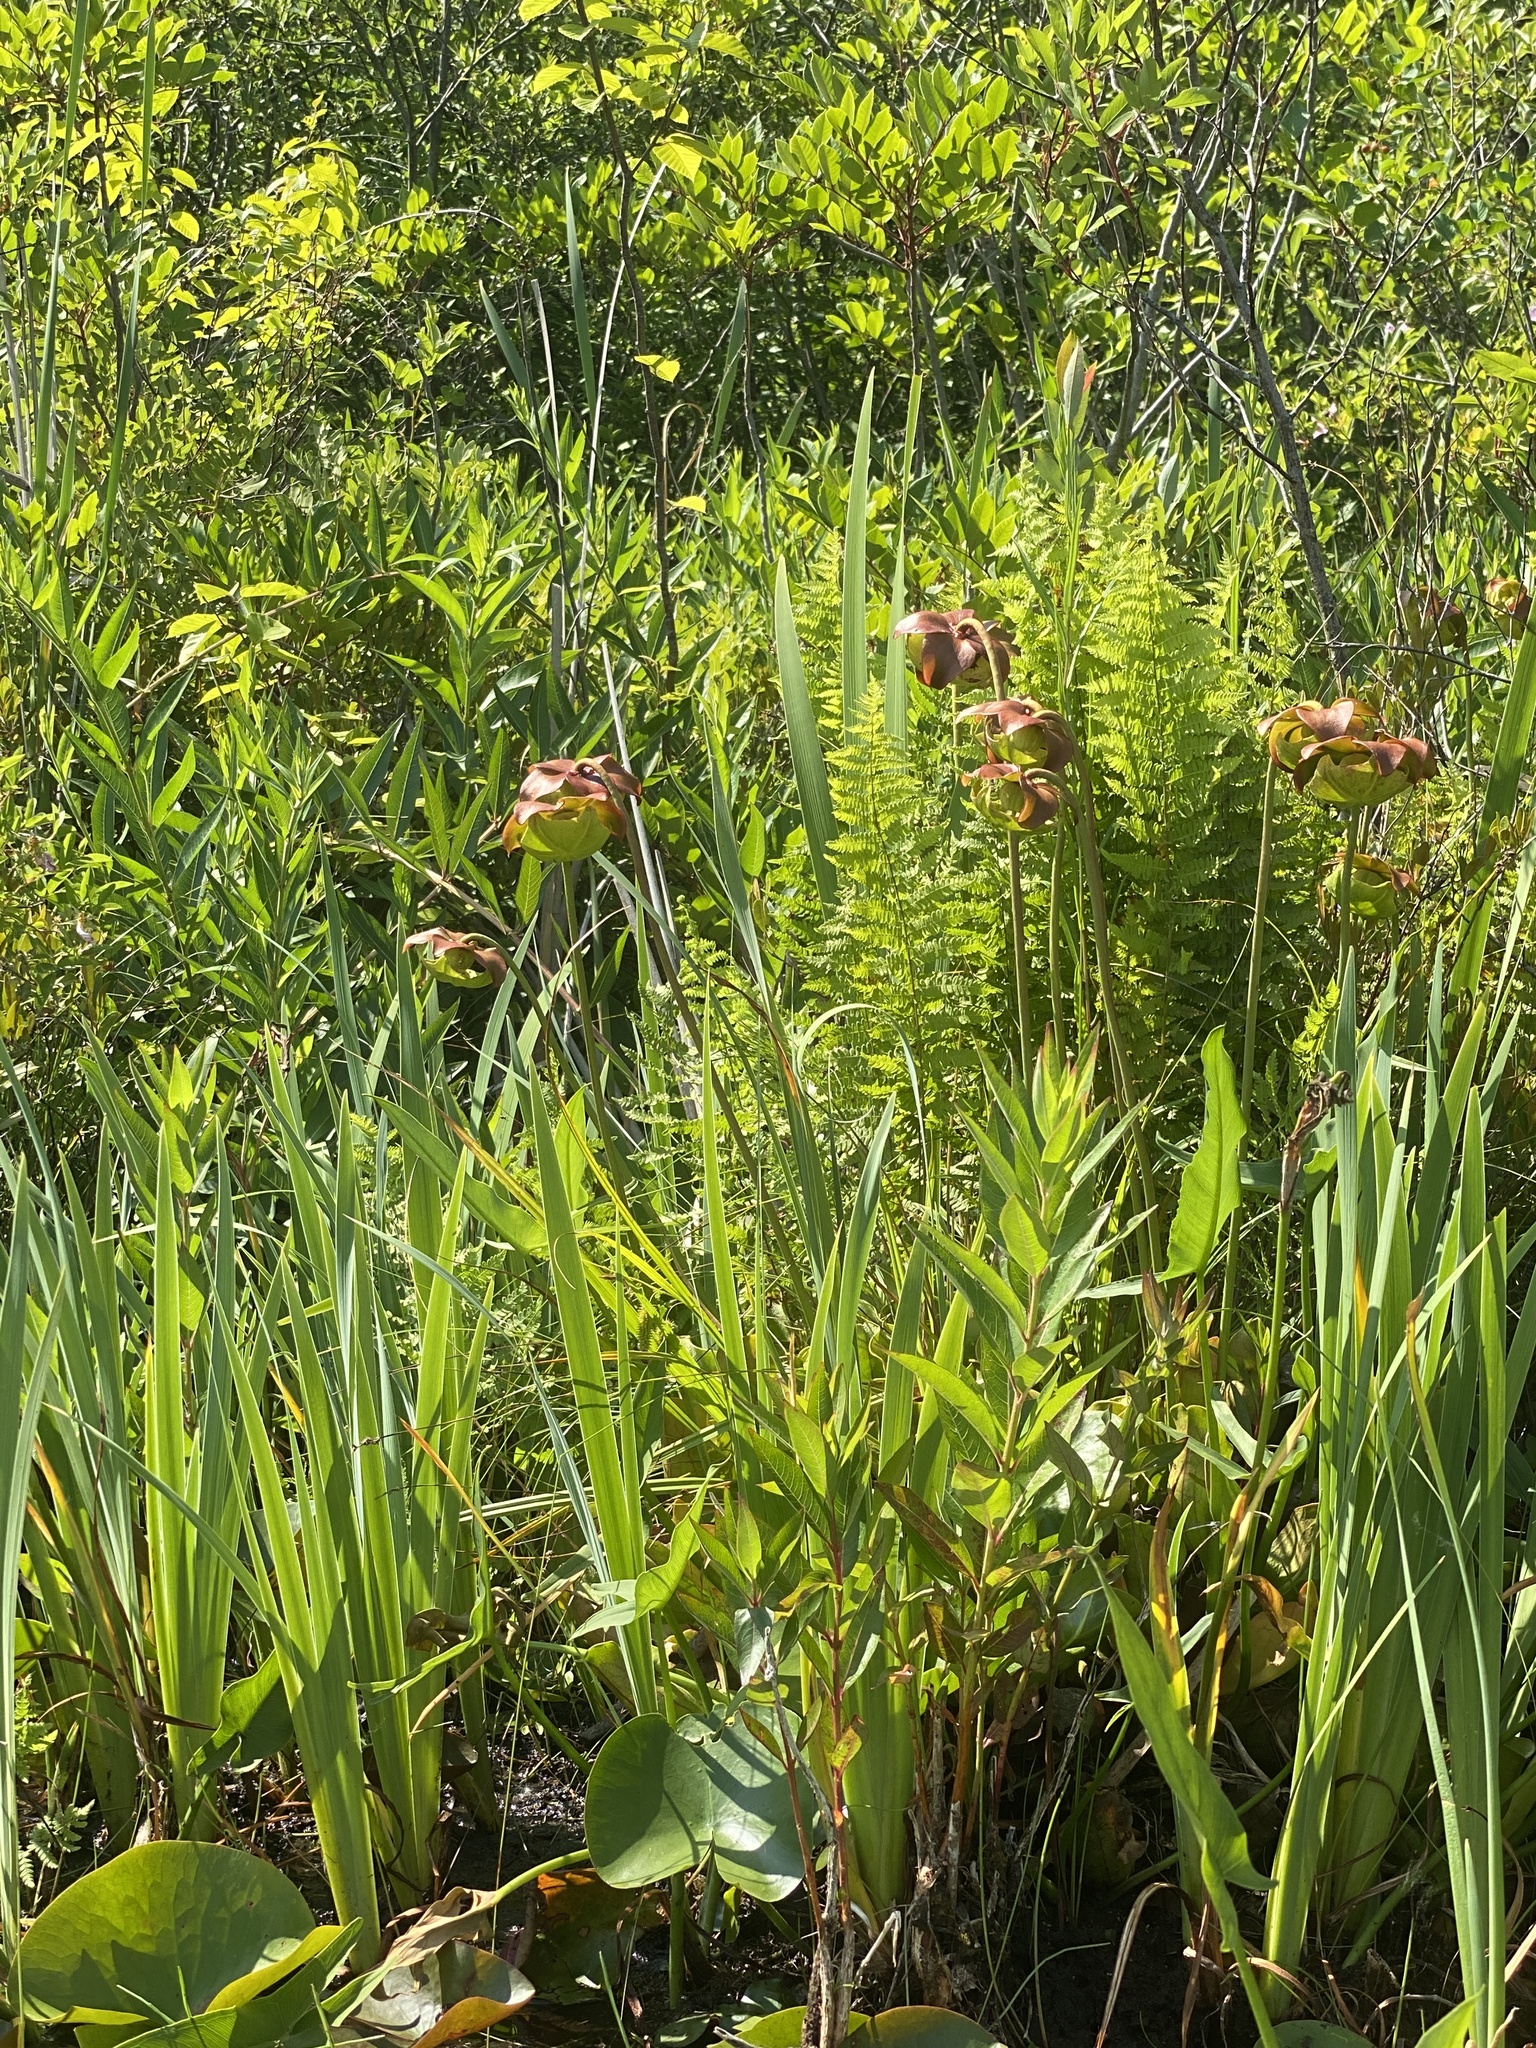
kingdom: Plantae
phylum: Tracheophyta
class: Magnoliopsida
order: Ericales
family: Sarraceniaceae
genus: Sarracenia
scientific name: Sarracenia purpurea
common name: Pitcherplant
